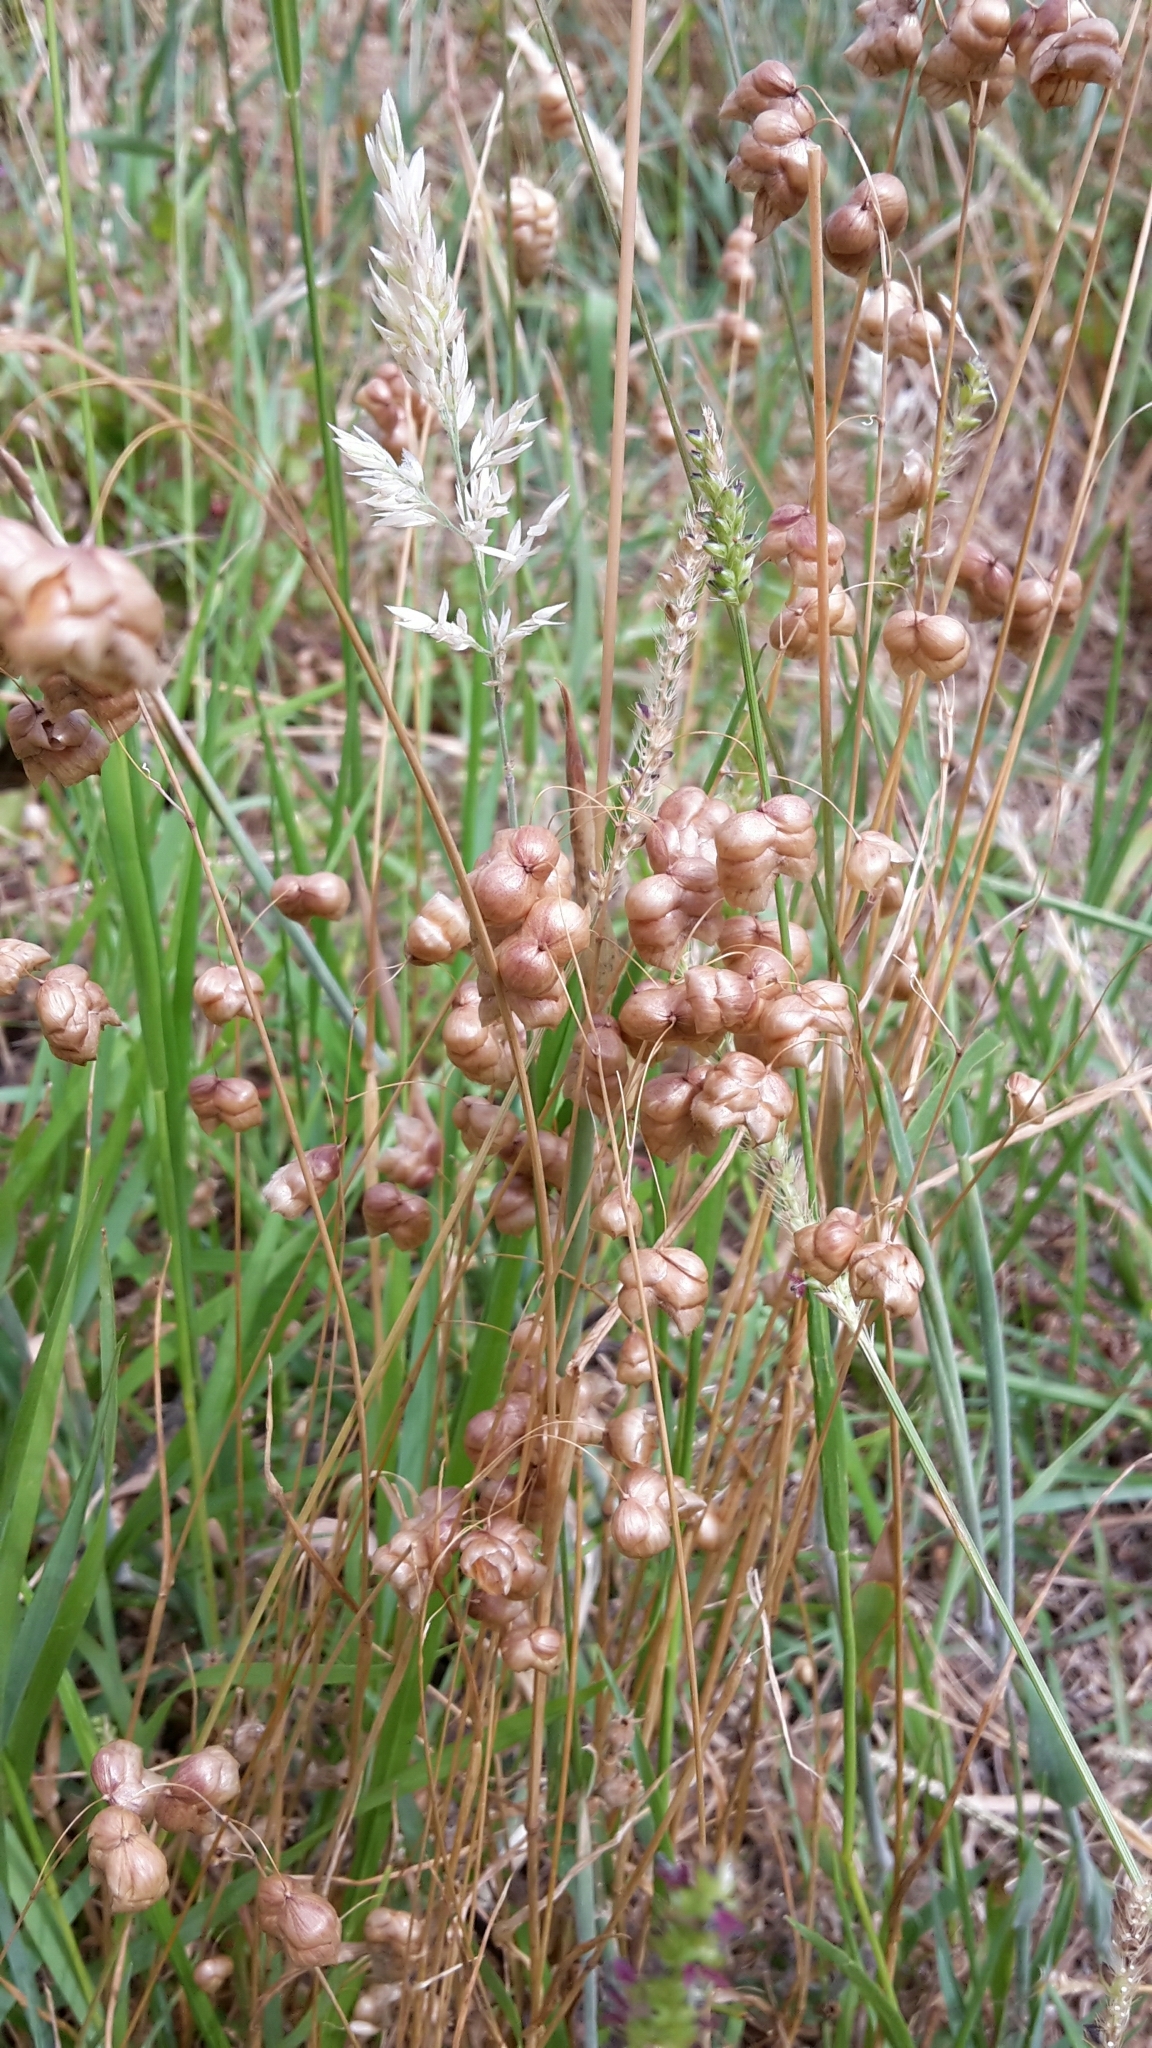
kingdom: Plantae
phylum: Tracheophyta
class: Liliopsida
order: Poales
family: Poaceae
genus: Briza
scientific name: Briza maxima
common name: Big quakinggrass
